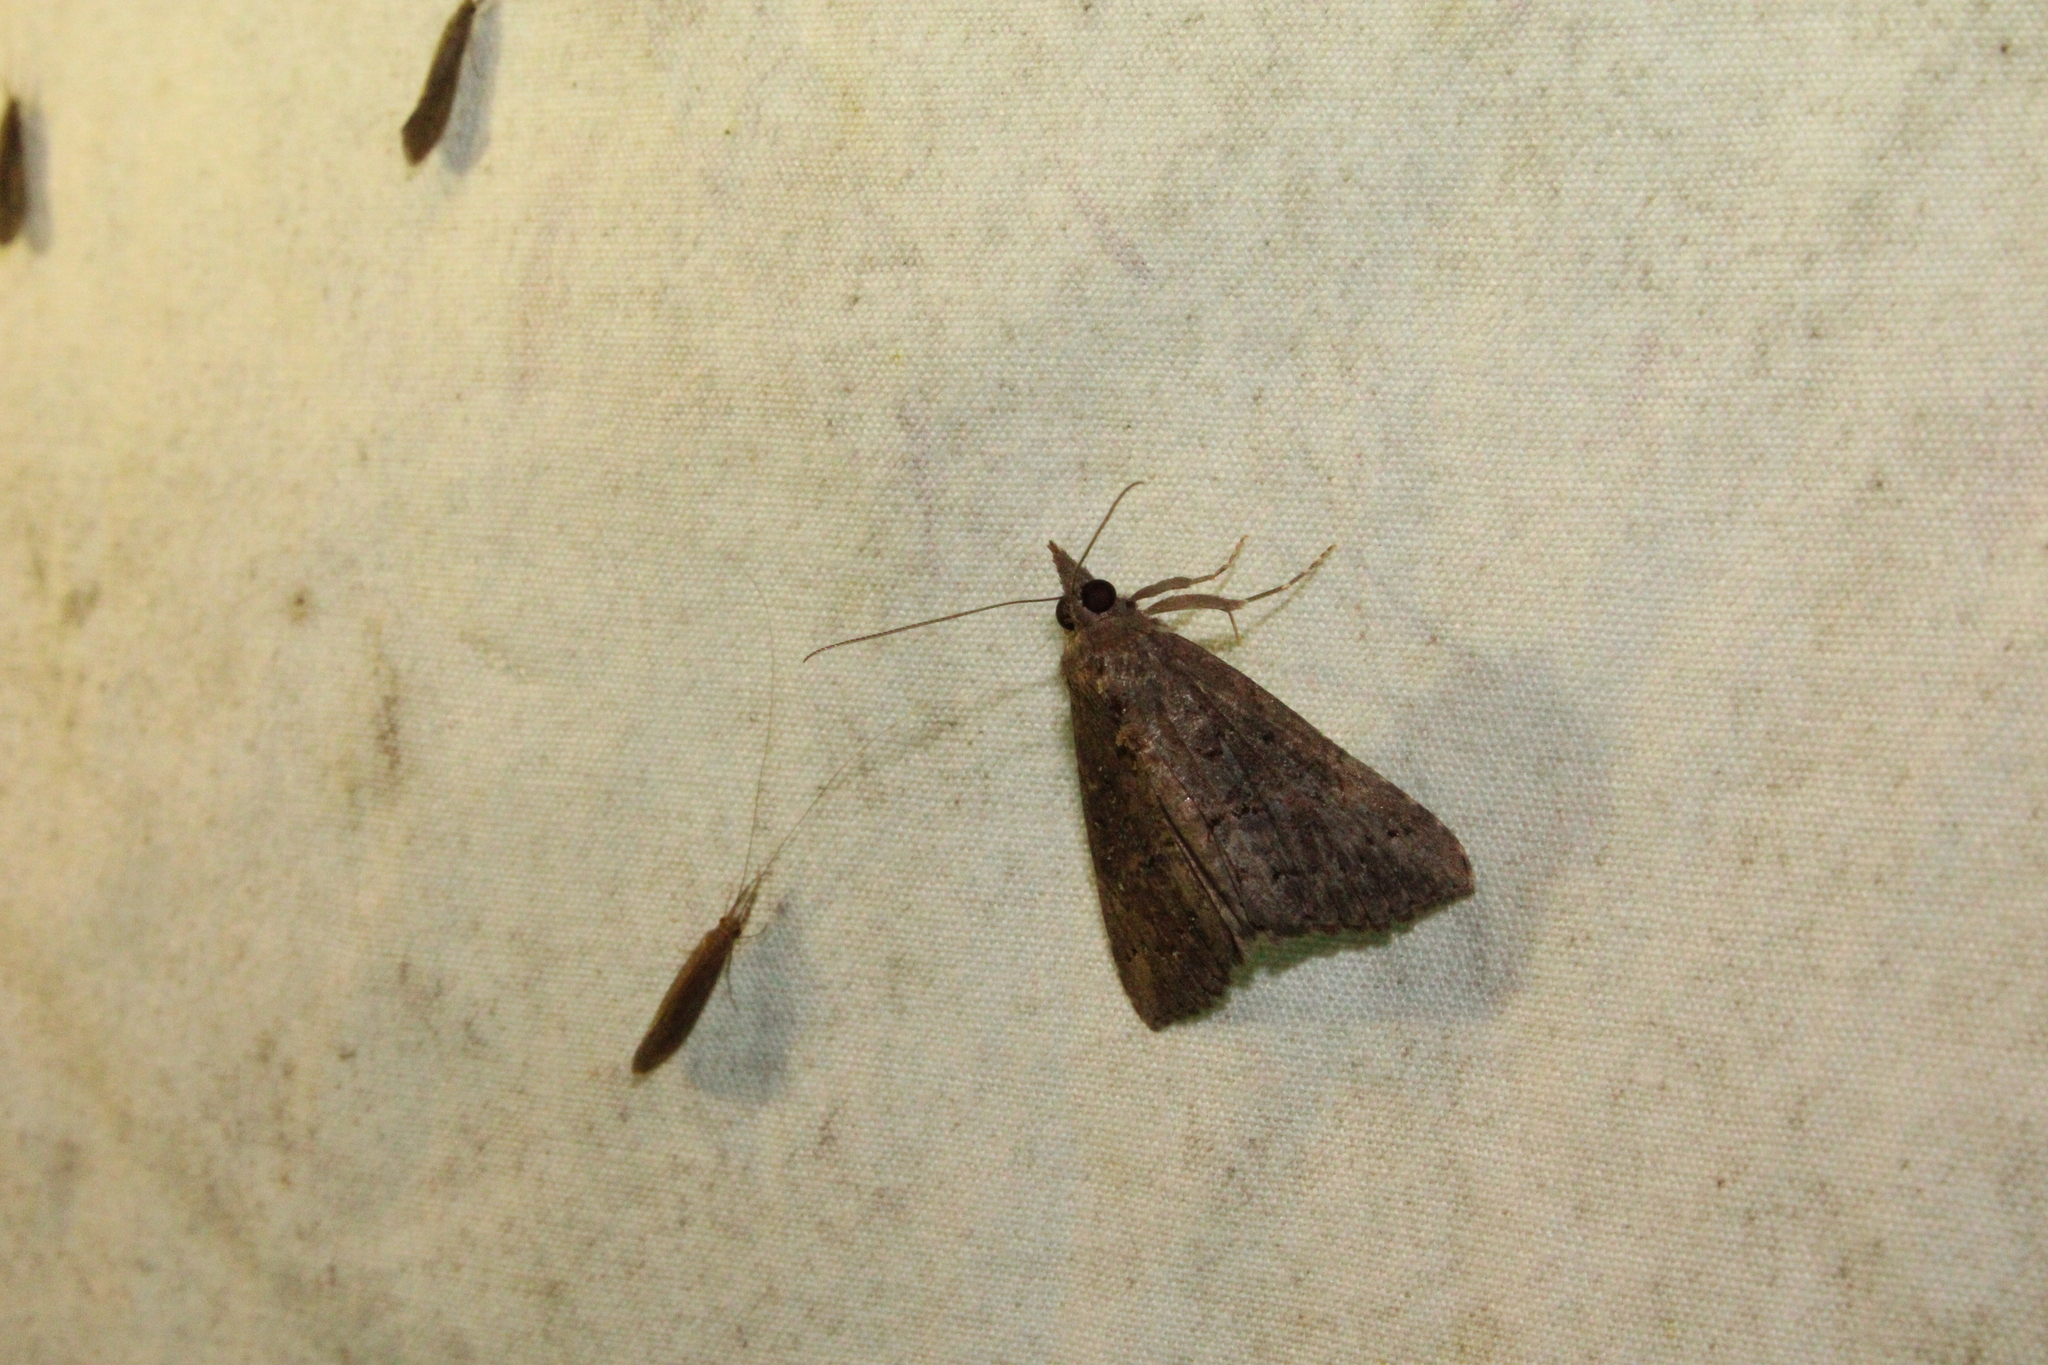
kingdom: Animalia
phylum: Arthropoda
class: Insecta
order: Lepidoptera
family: Erebidae
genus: Hypena
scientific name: Hypena scabra
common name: Green cloverworm
